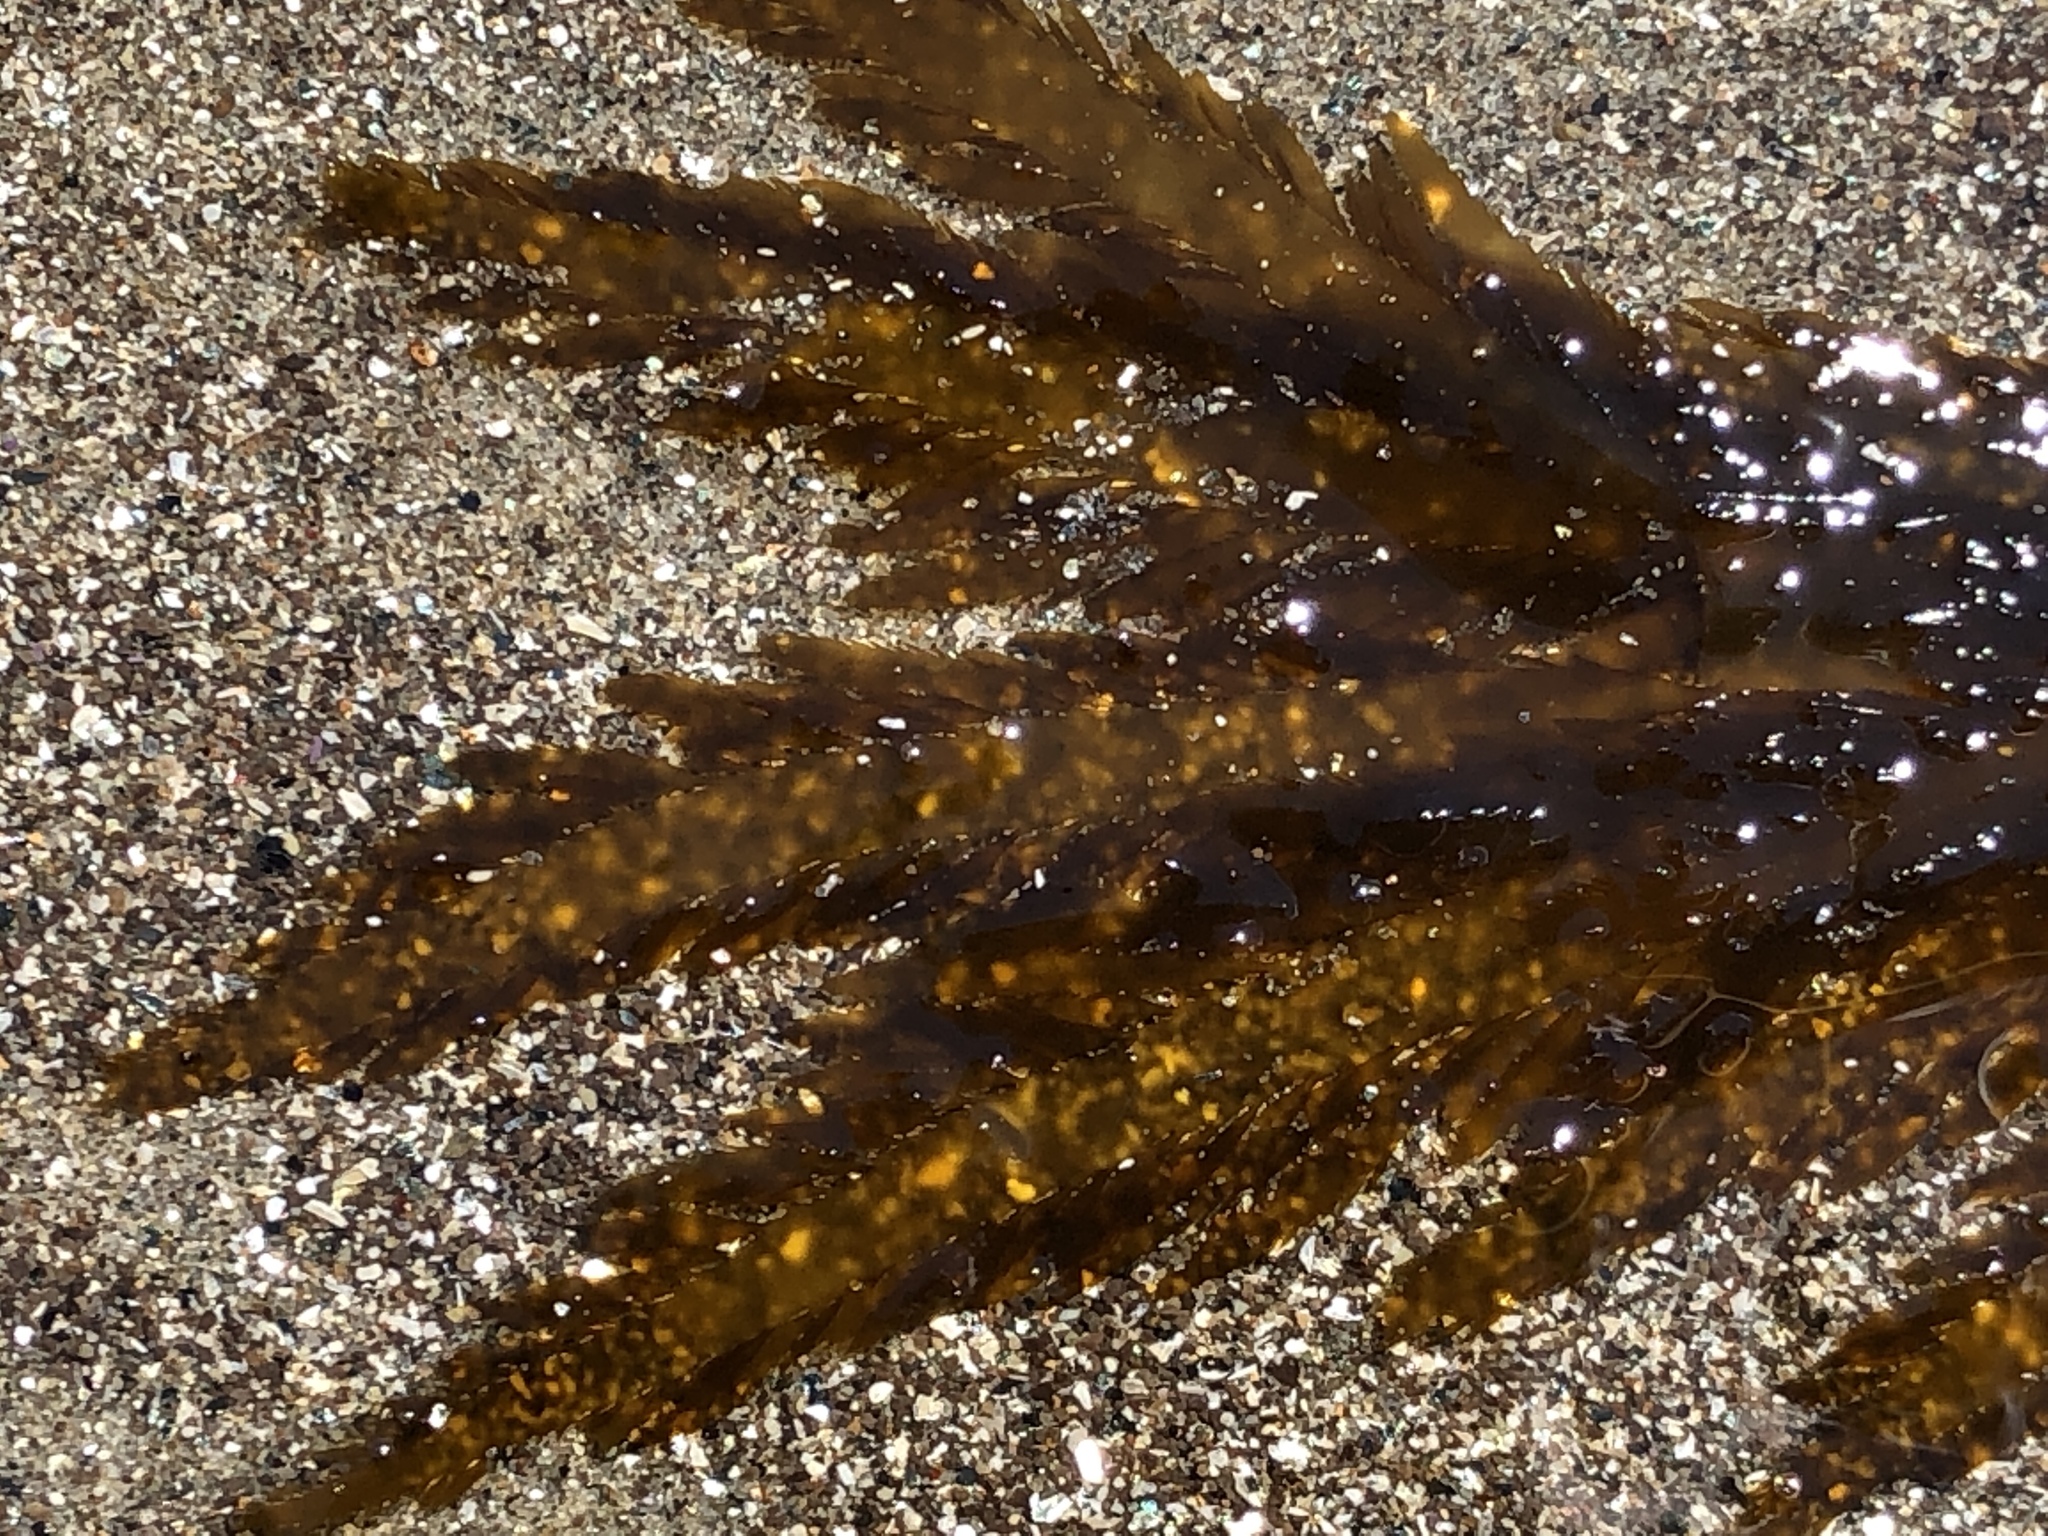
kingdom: Chromista
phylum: Ochrophyta
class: Phaeophyceae
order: Desmarestiales
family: Desmarestiaceae
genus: Desmarestia
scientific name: Desmarestia ligulata
